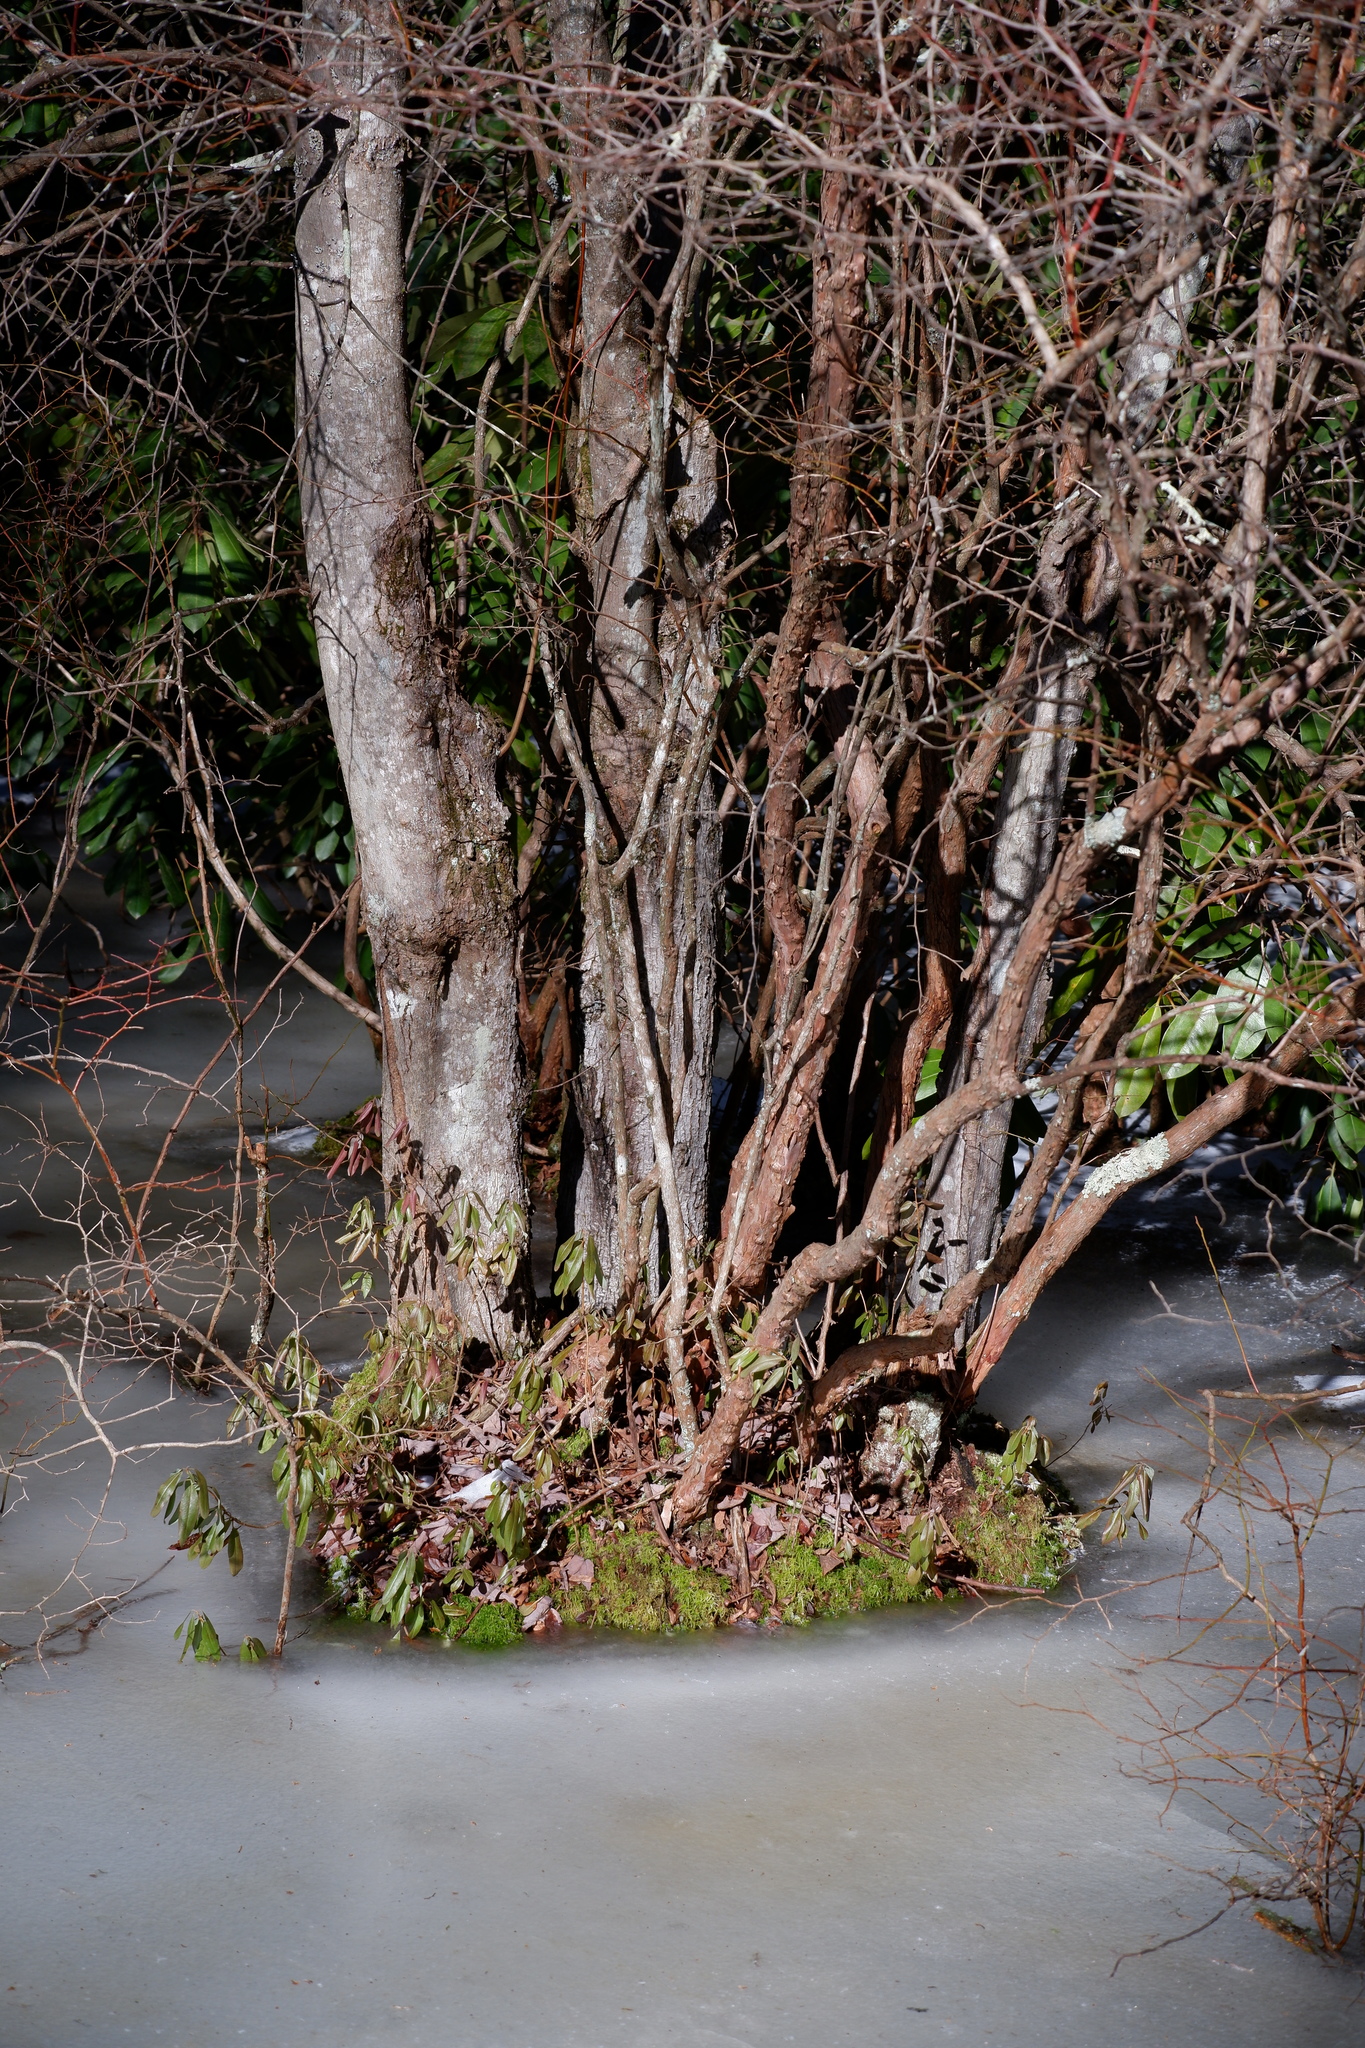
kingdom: Plantae
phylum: Tracheophyta
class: Magnoliopsida
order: Ericales
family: Ericaceae
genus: Kalmia
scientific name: Kalmia angustifolia
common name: Sheep-laurel
